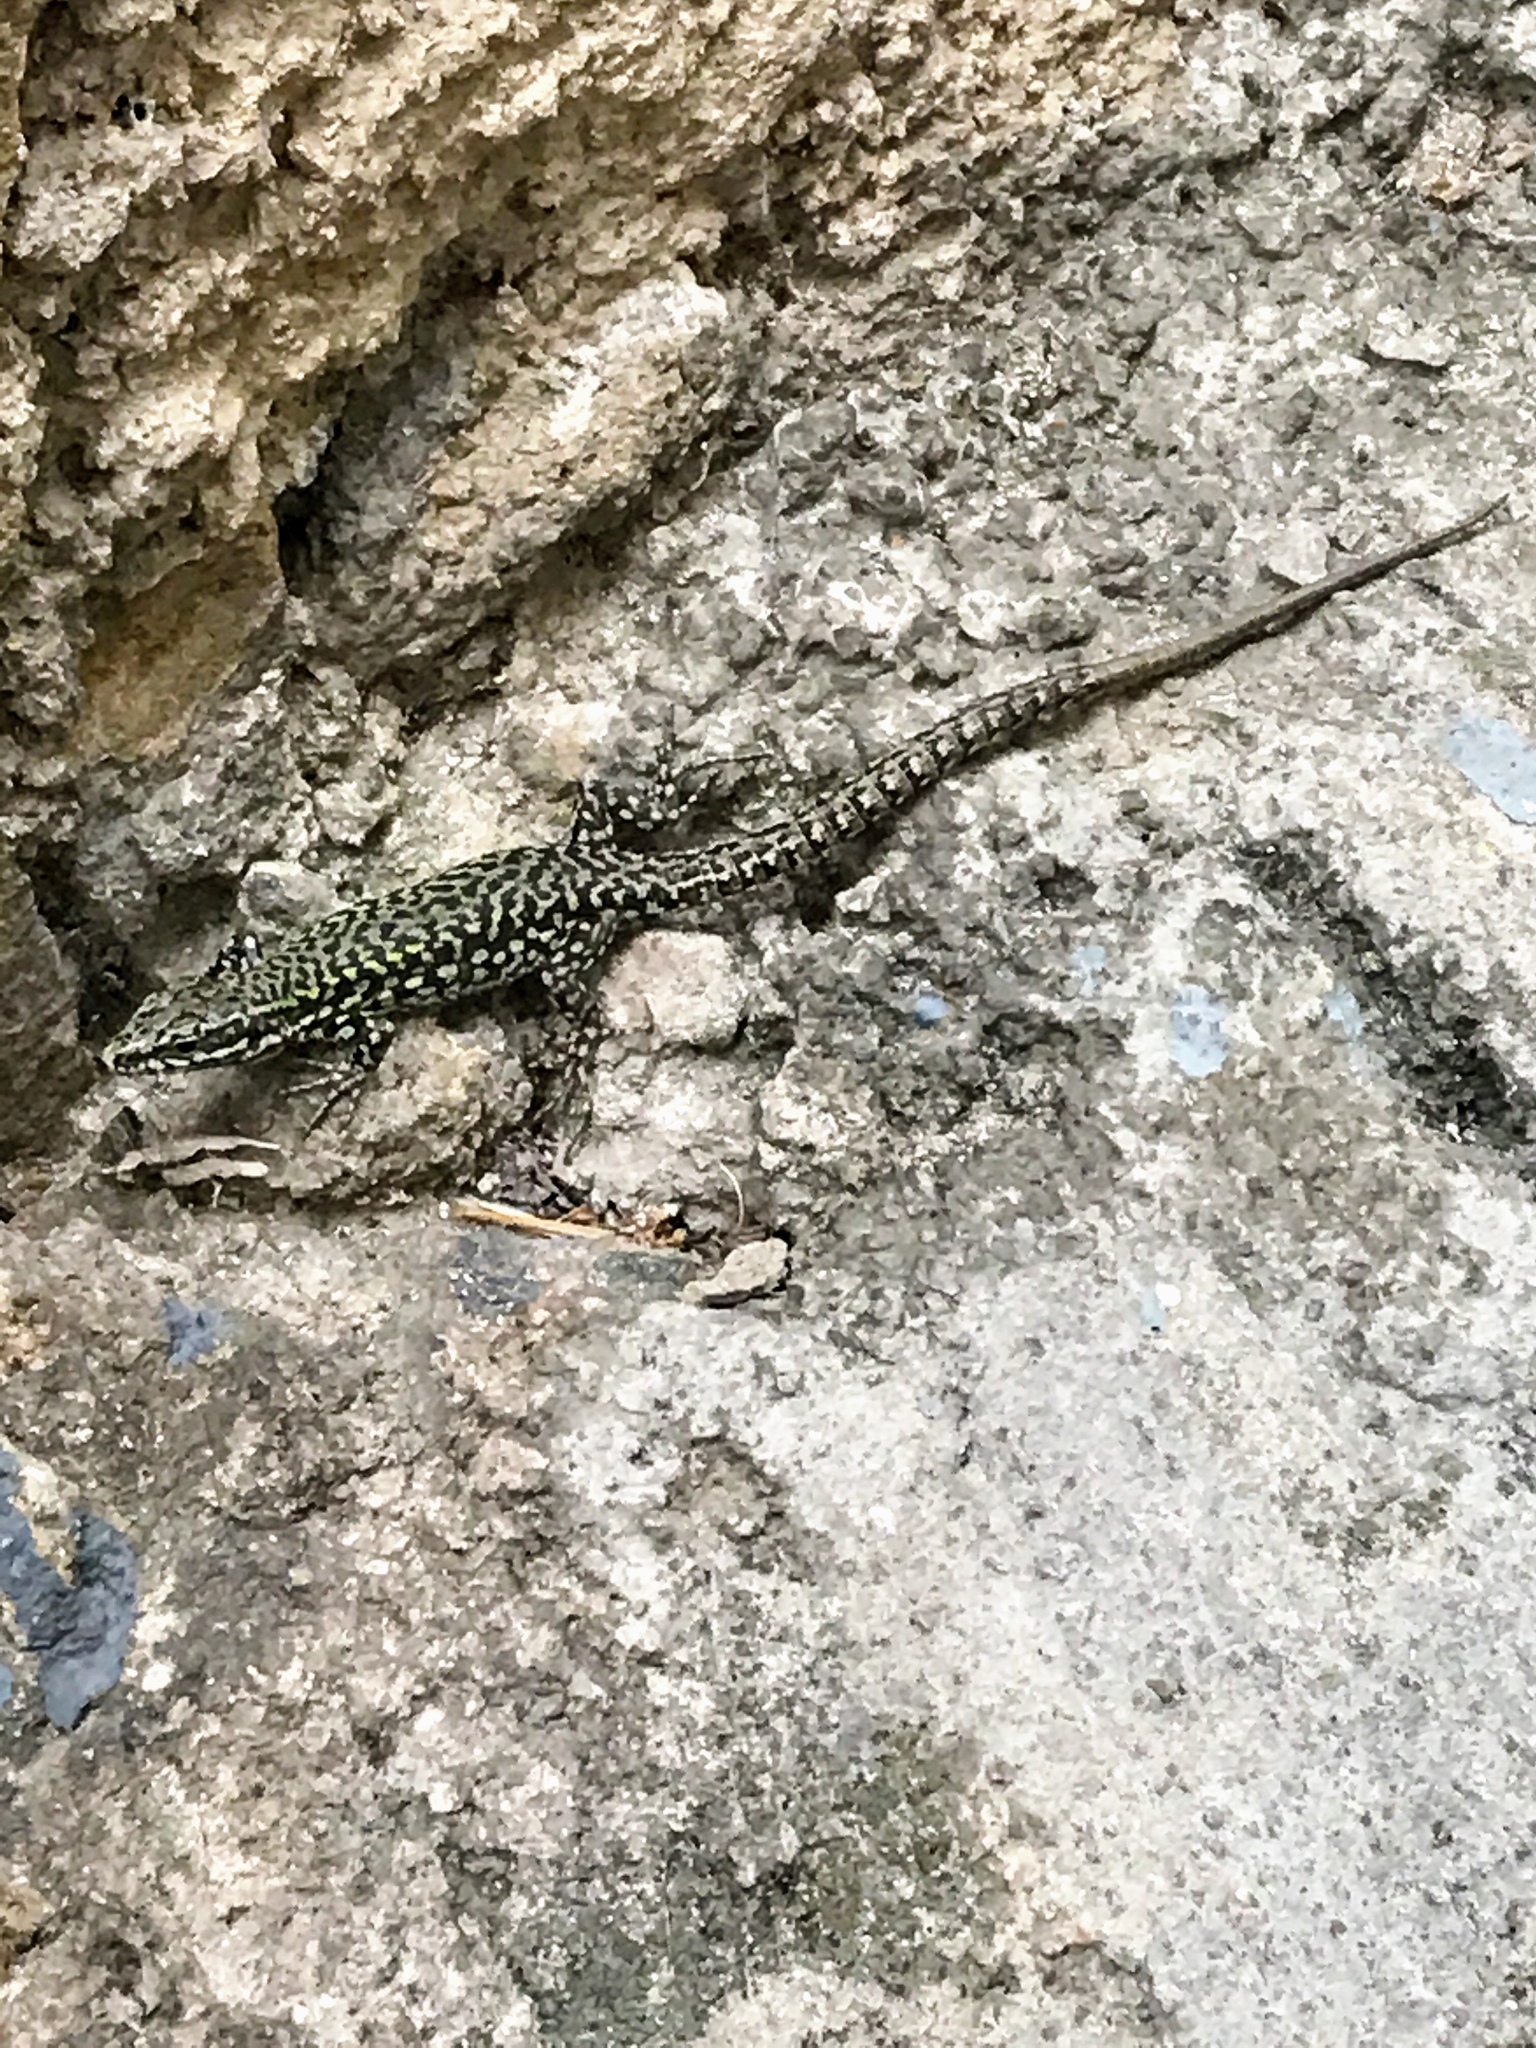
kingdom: Animalia
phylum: Chordata
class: Squamata
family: Lacertidae
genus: Podarcis
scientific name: Podarcis muralis
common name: Common wall lizard
